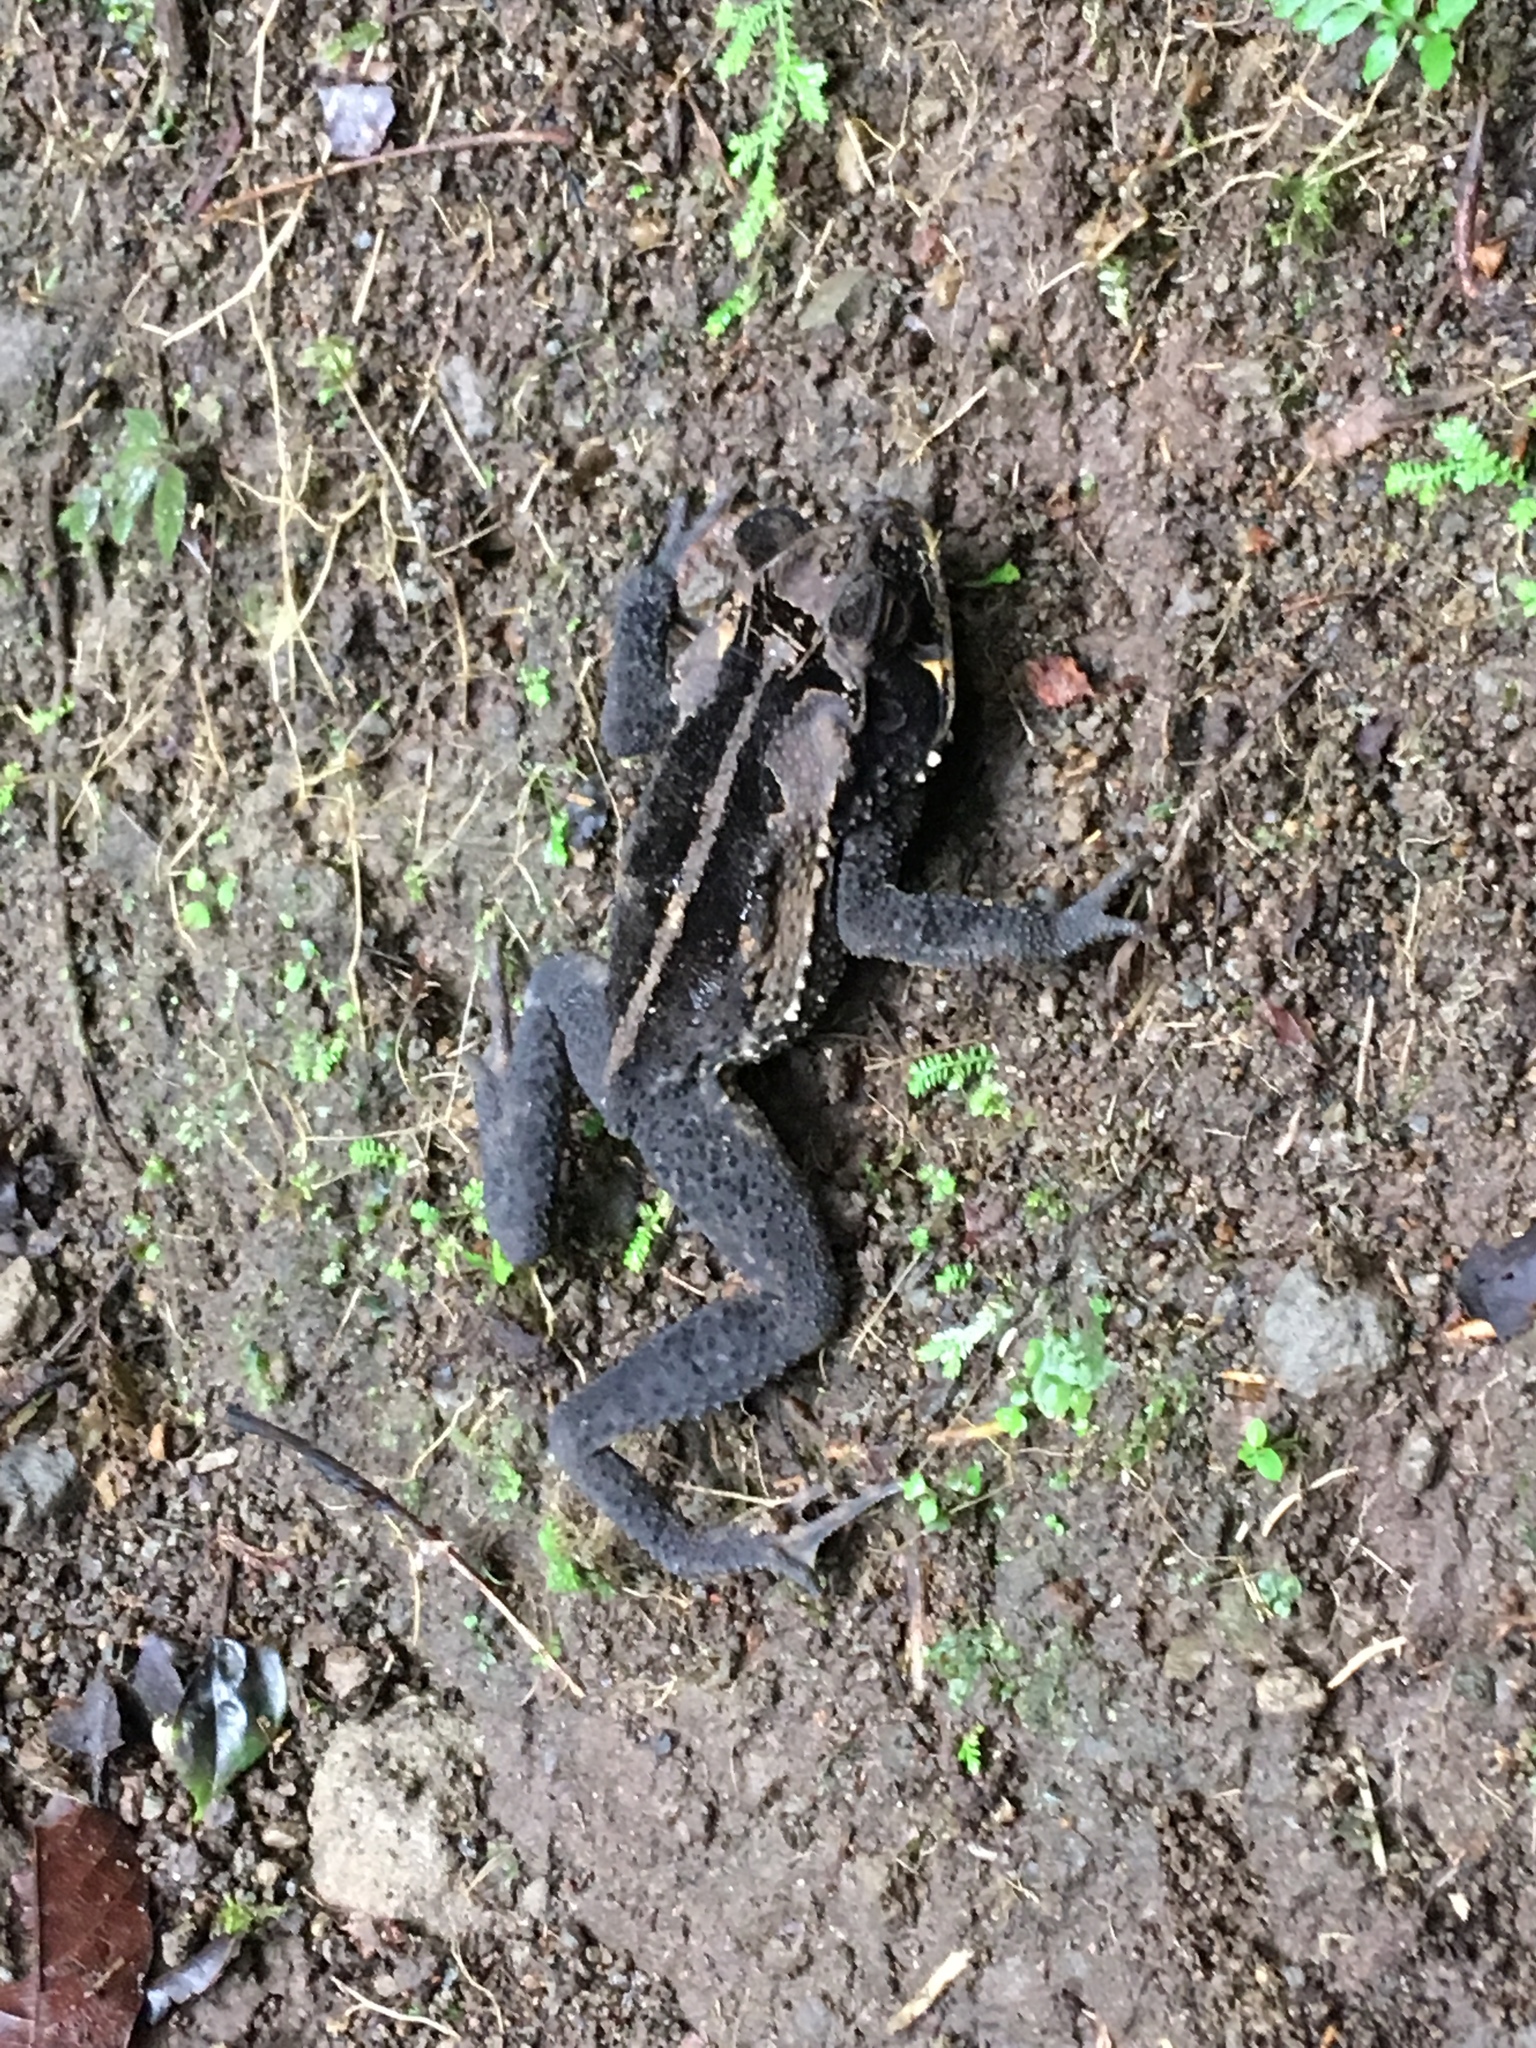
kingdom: Animalia
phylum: Chordata
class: Amphibia
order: Anura
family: Bufonidae
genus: Incilius
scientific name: Incilius melanochlorus
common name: Dark green toad
